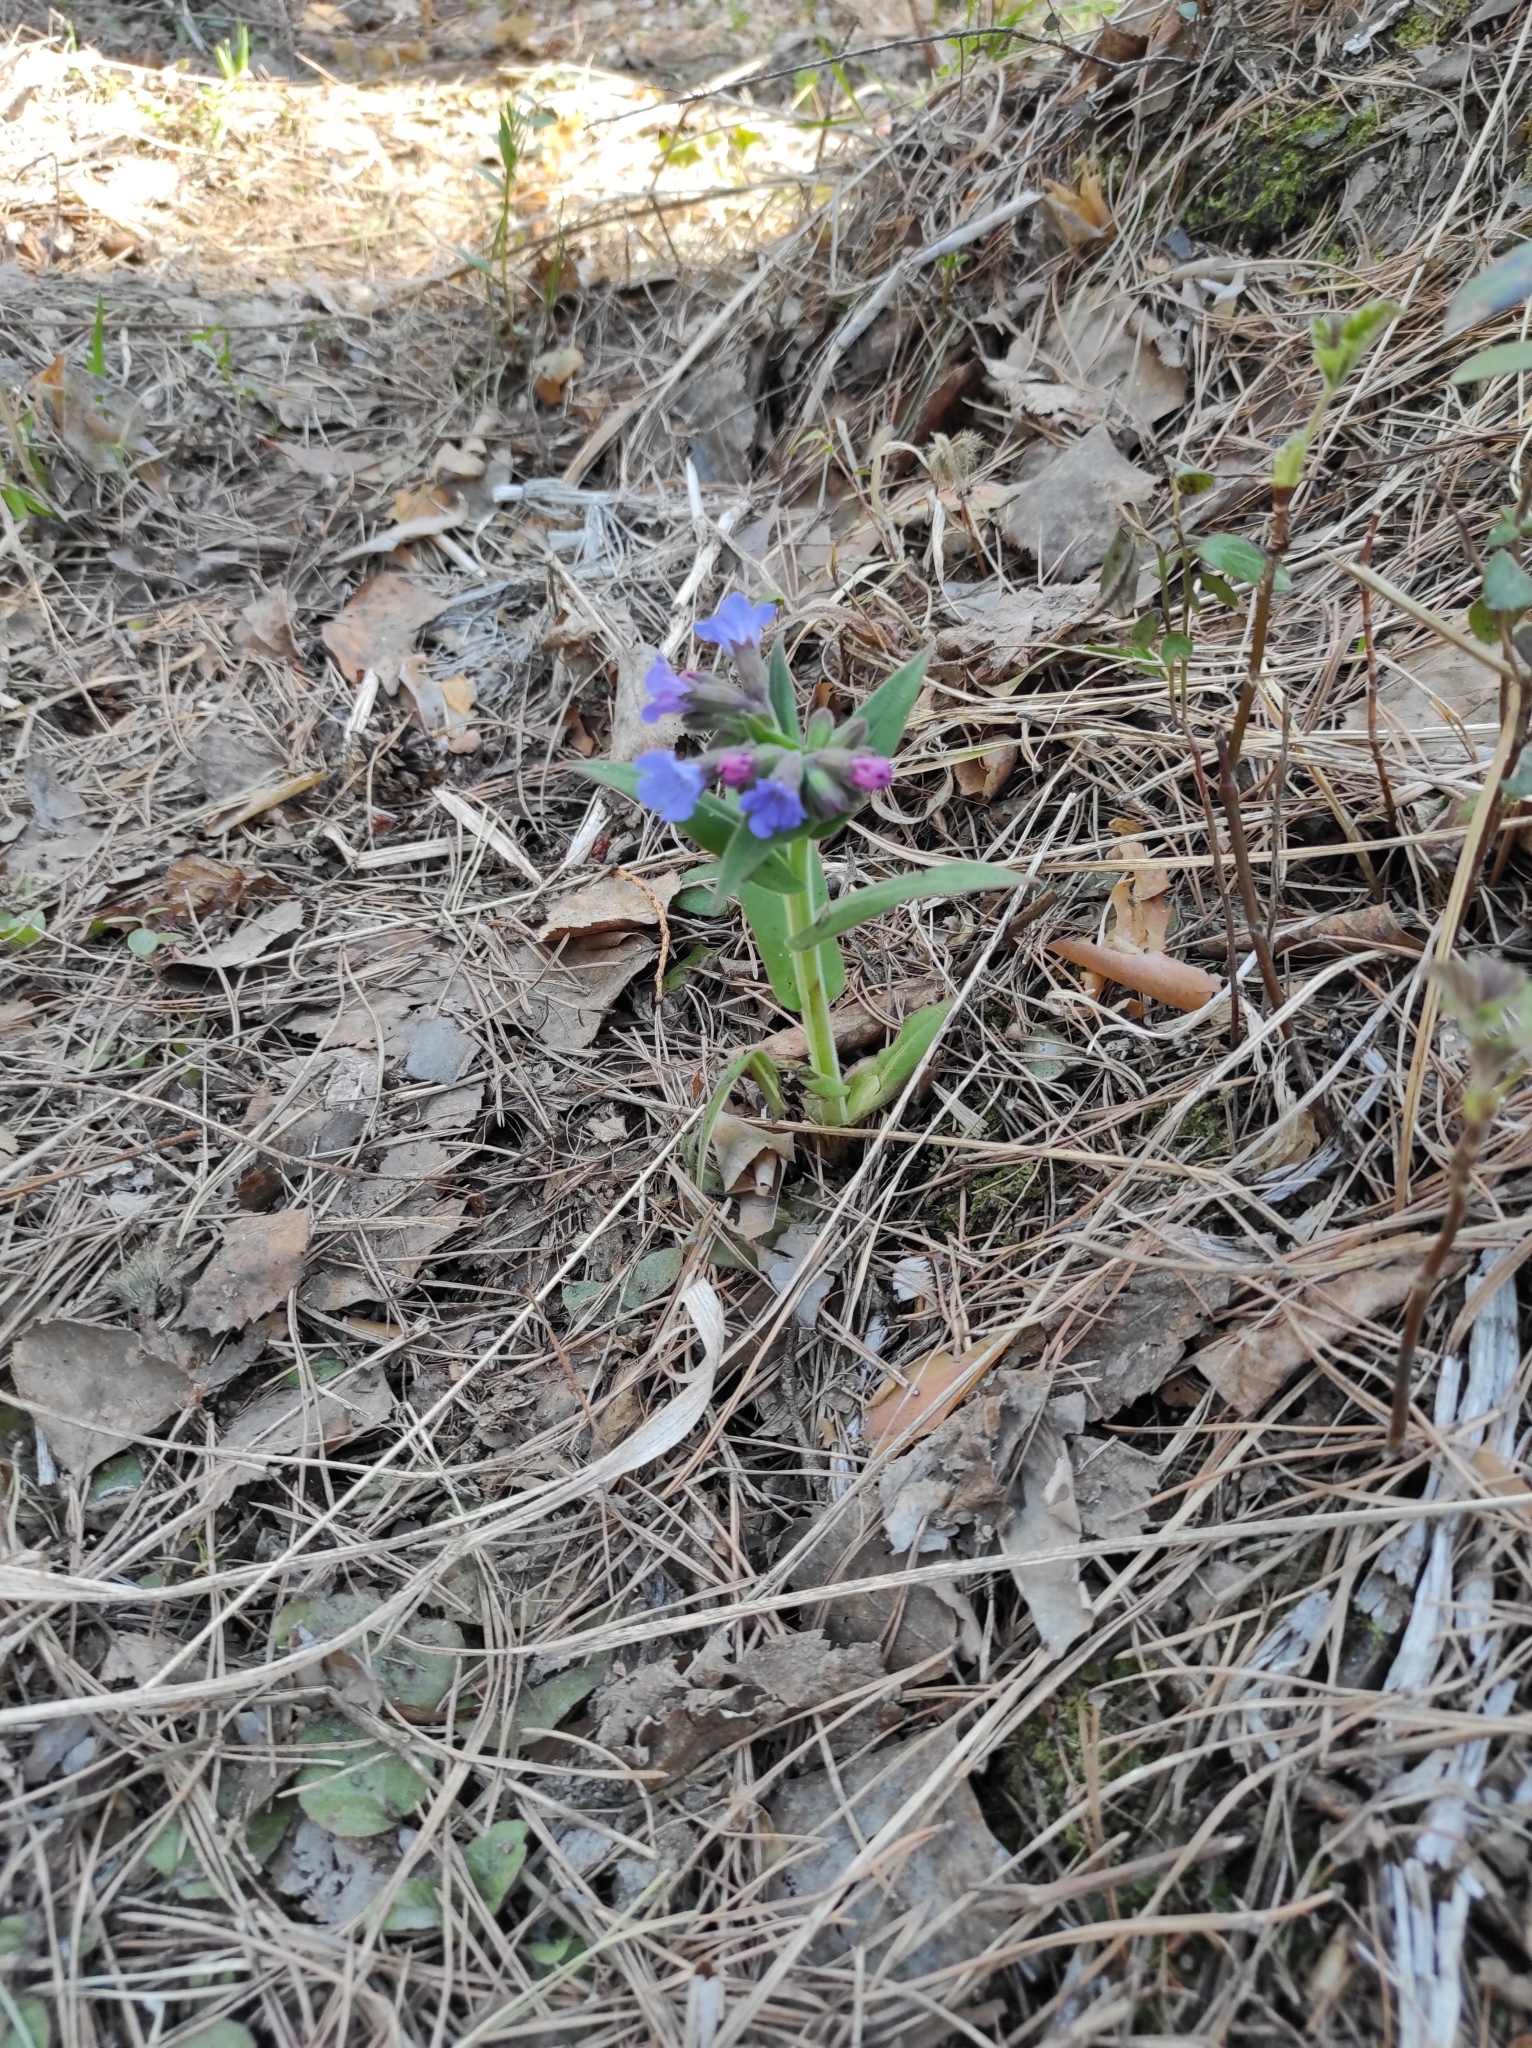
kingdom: Plantae
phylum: Tracheophyta
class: Magnoliopsida
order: Boraginales
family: Boraginaceae
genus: Pulmonaria
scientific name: Pulmonaria mollis
